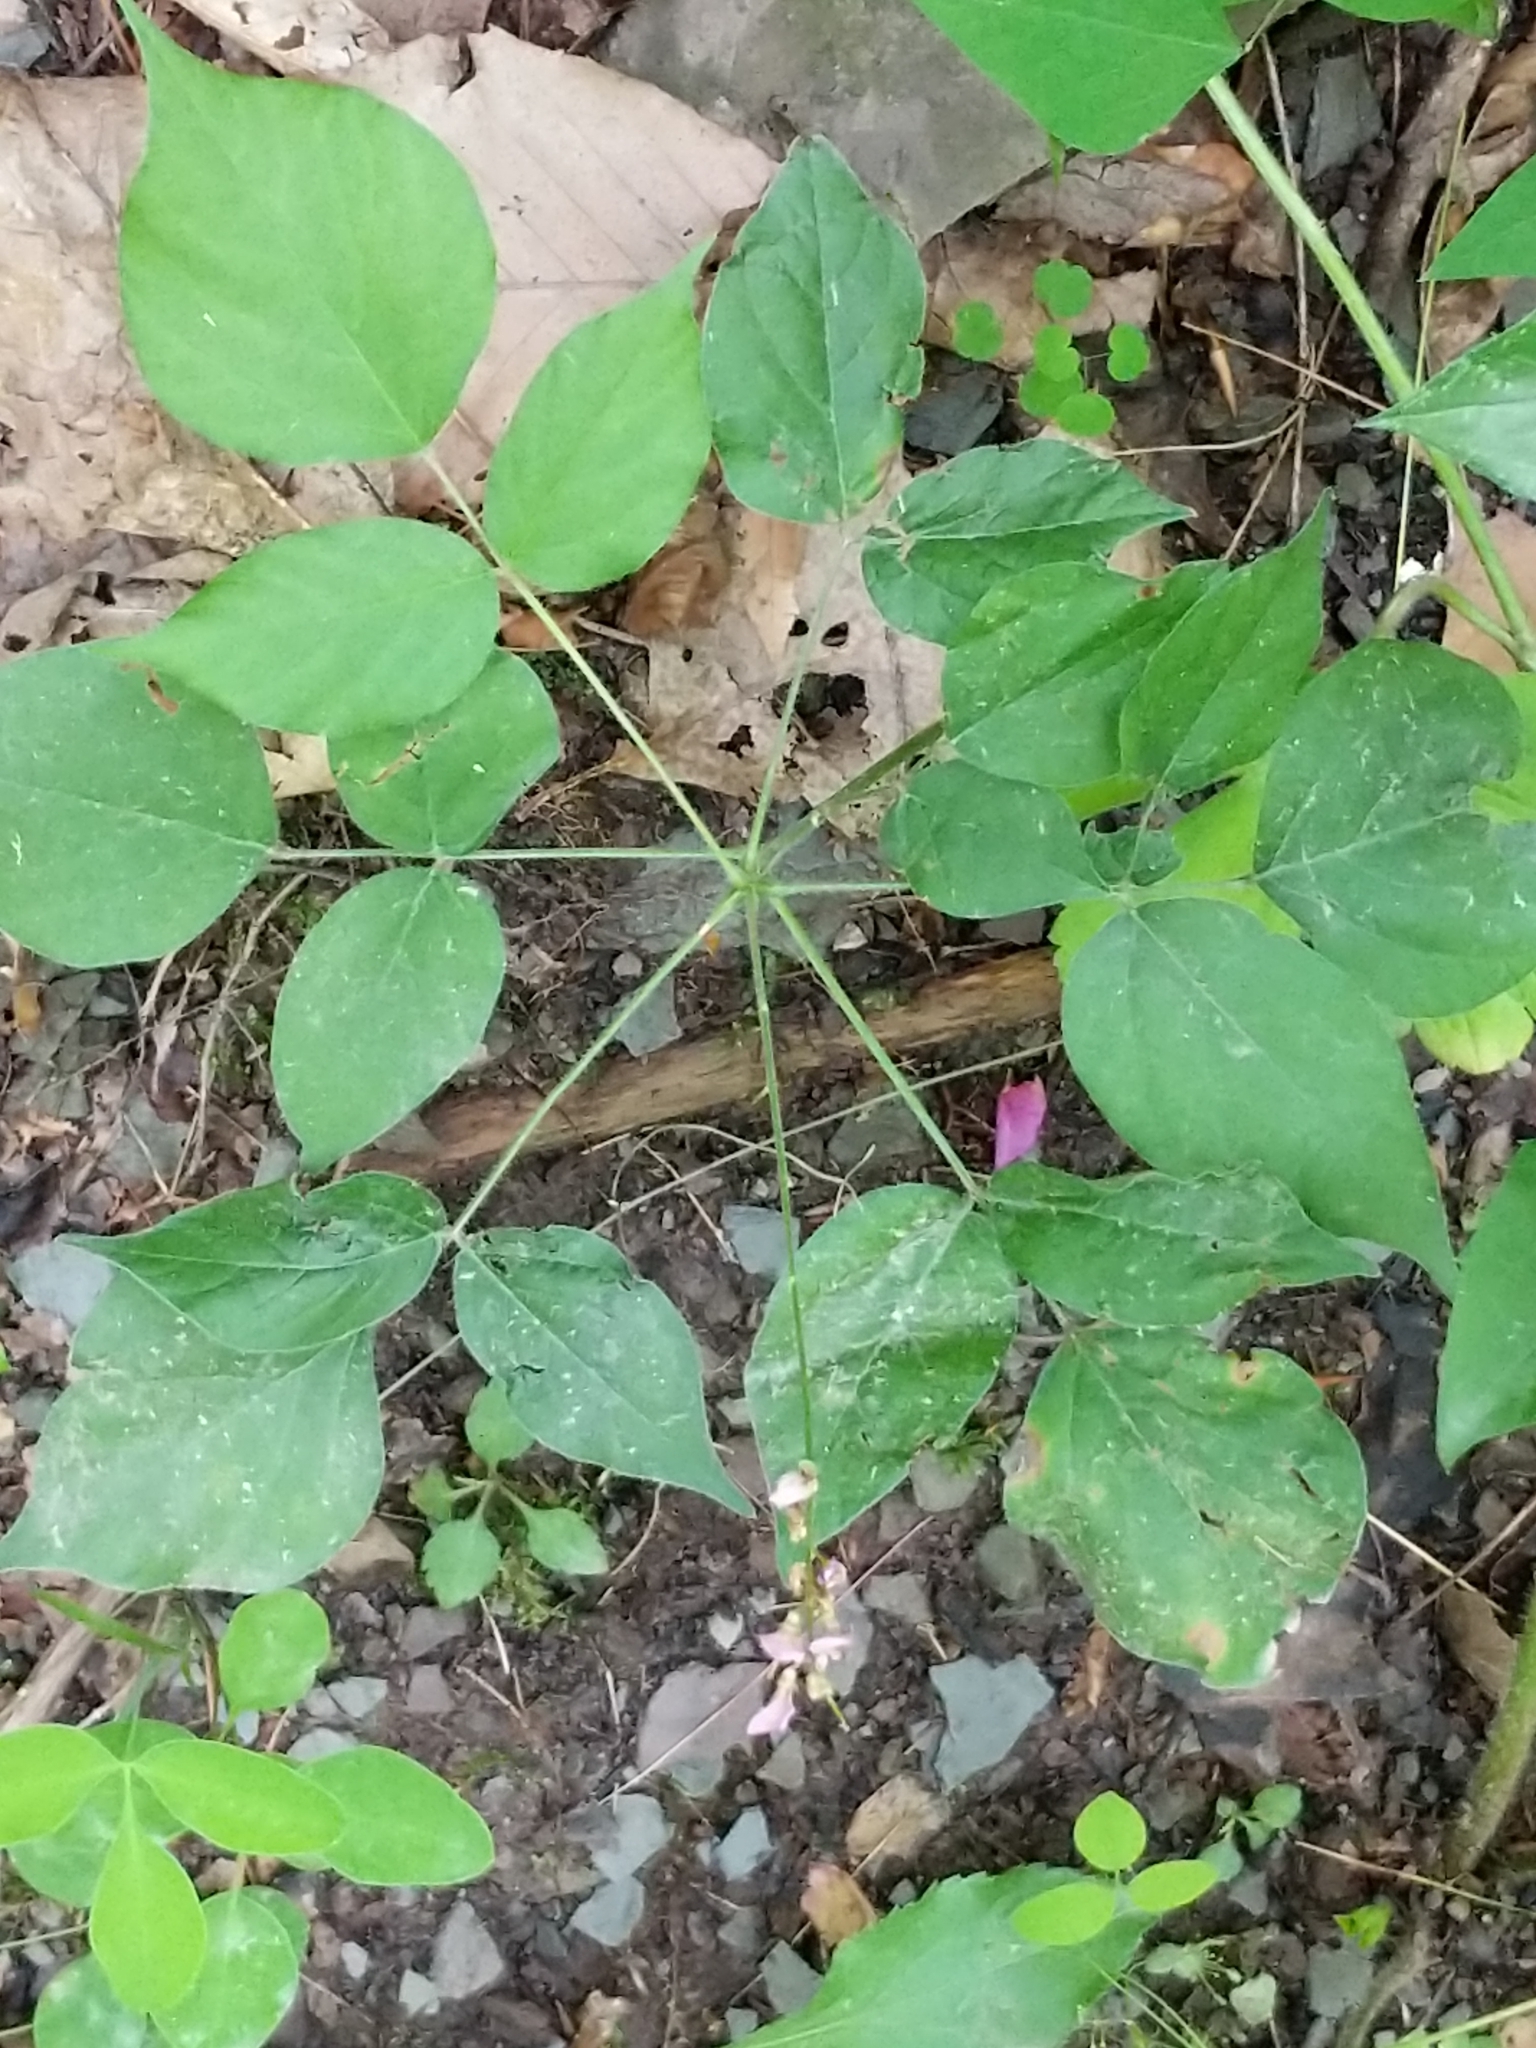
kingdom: Plantae
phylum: Tracheophyta
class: Magnoliopsida
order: Fabales
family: Fabaceae
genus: Hylodesmum
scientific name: Hylodesmum glutinosum
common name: Clustered-leaved tick-trefoil
